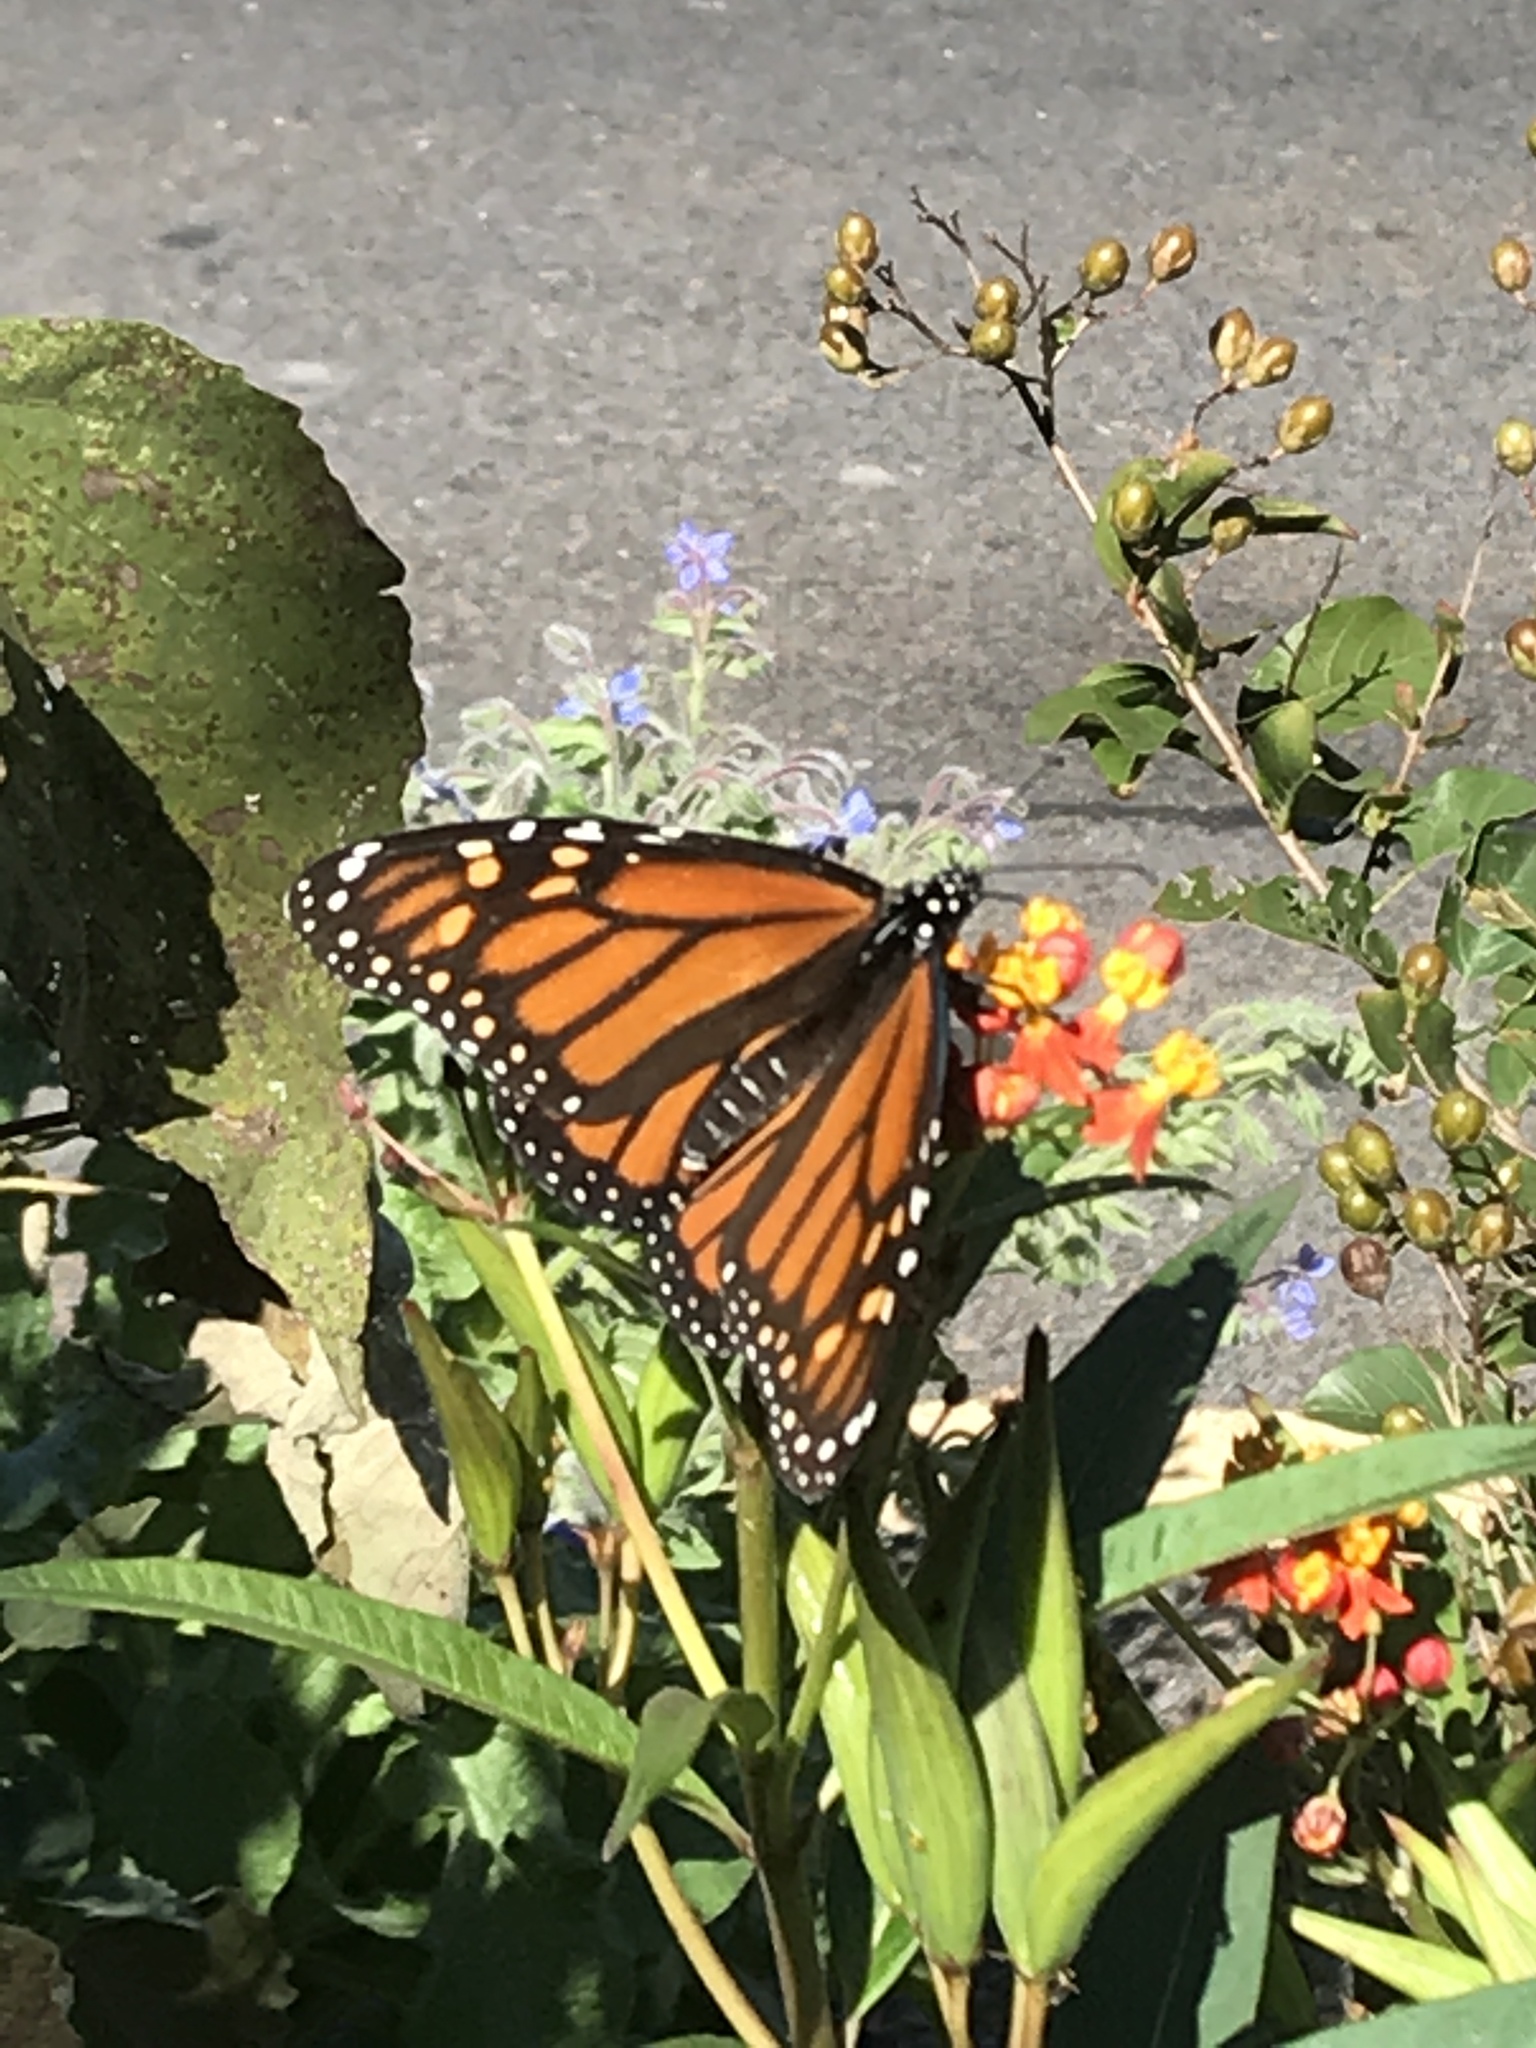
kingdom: Animalia
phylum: Arthropoda
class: Insecta
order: Lepidoptera
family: Nymphalidae
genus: Danaus
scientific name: Danaus plexippus
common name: Monarch
